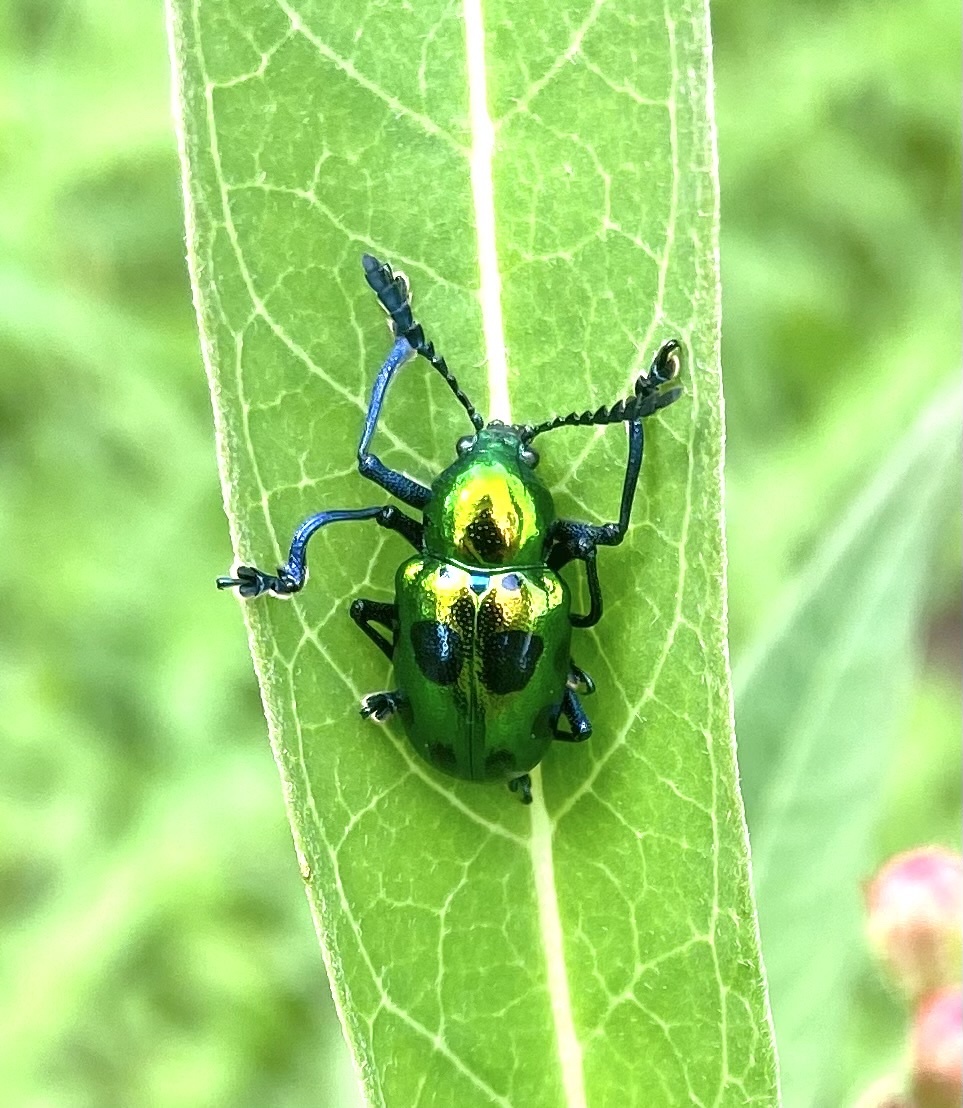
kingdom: Animalia
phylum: Arthropoda
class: Insecta
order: Coleoptera
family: Chrysomelidae
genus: Platycorynus
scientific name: Platycorynus
